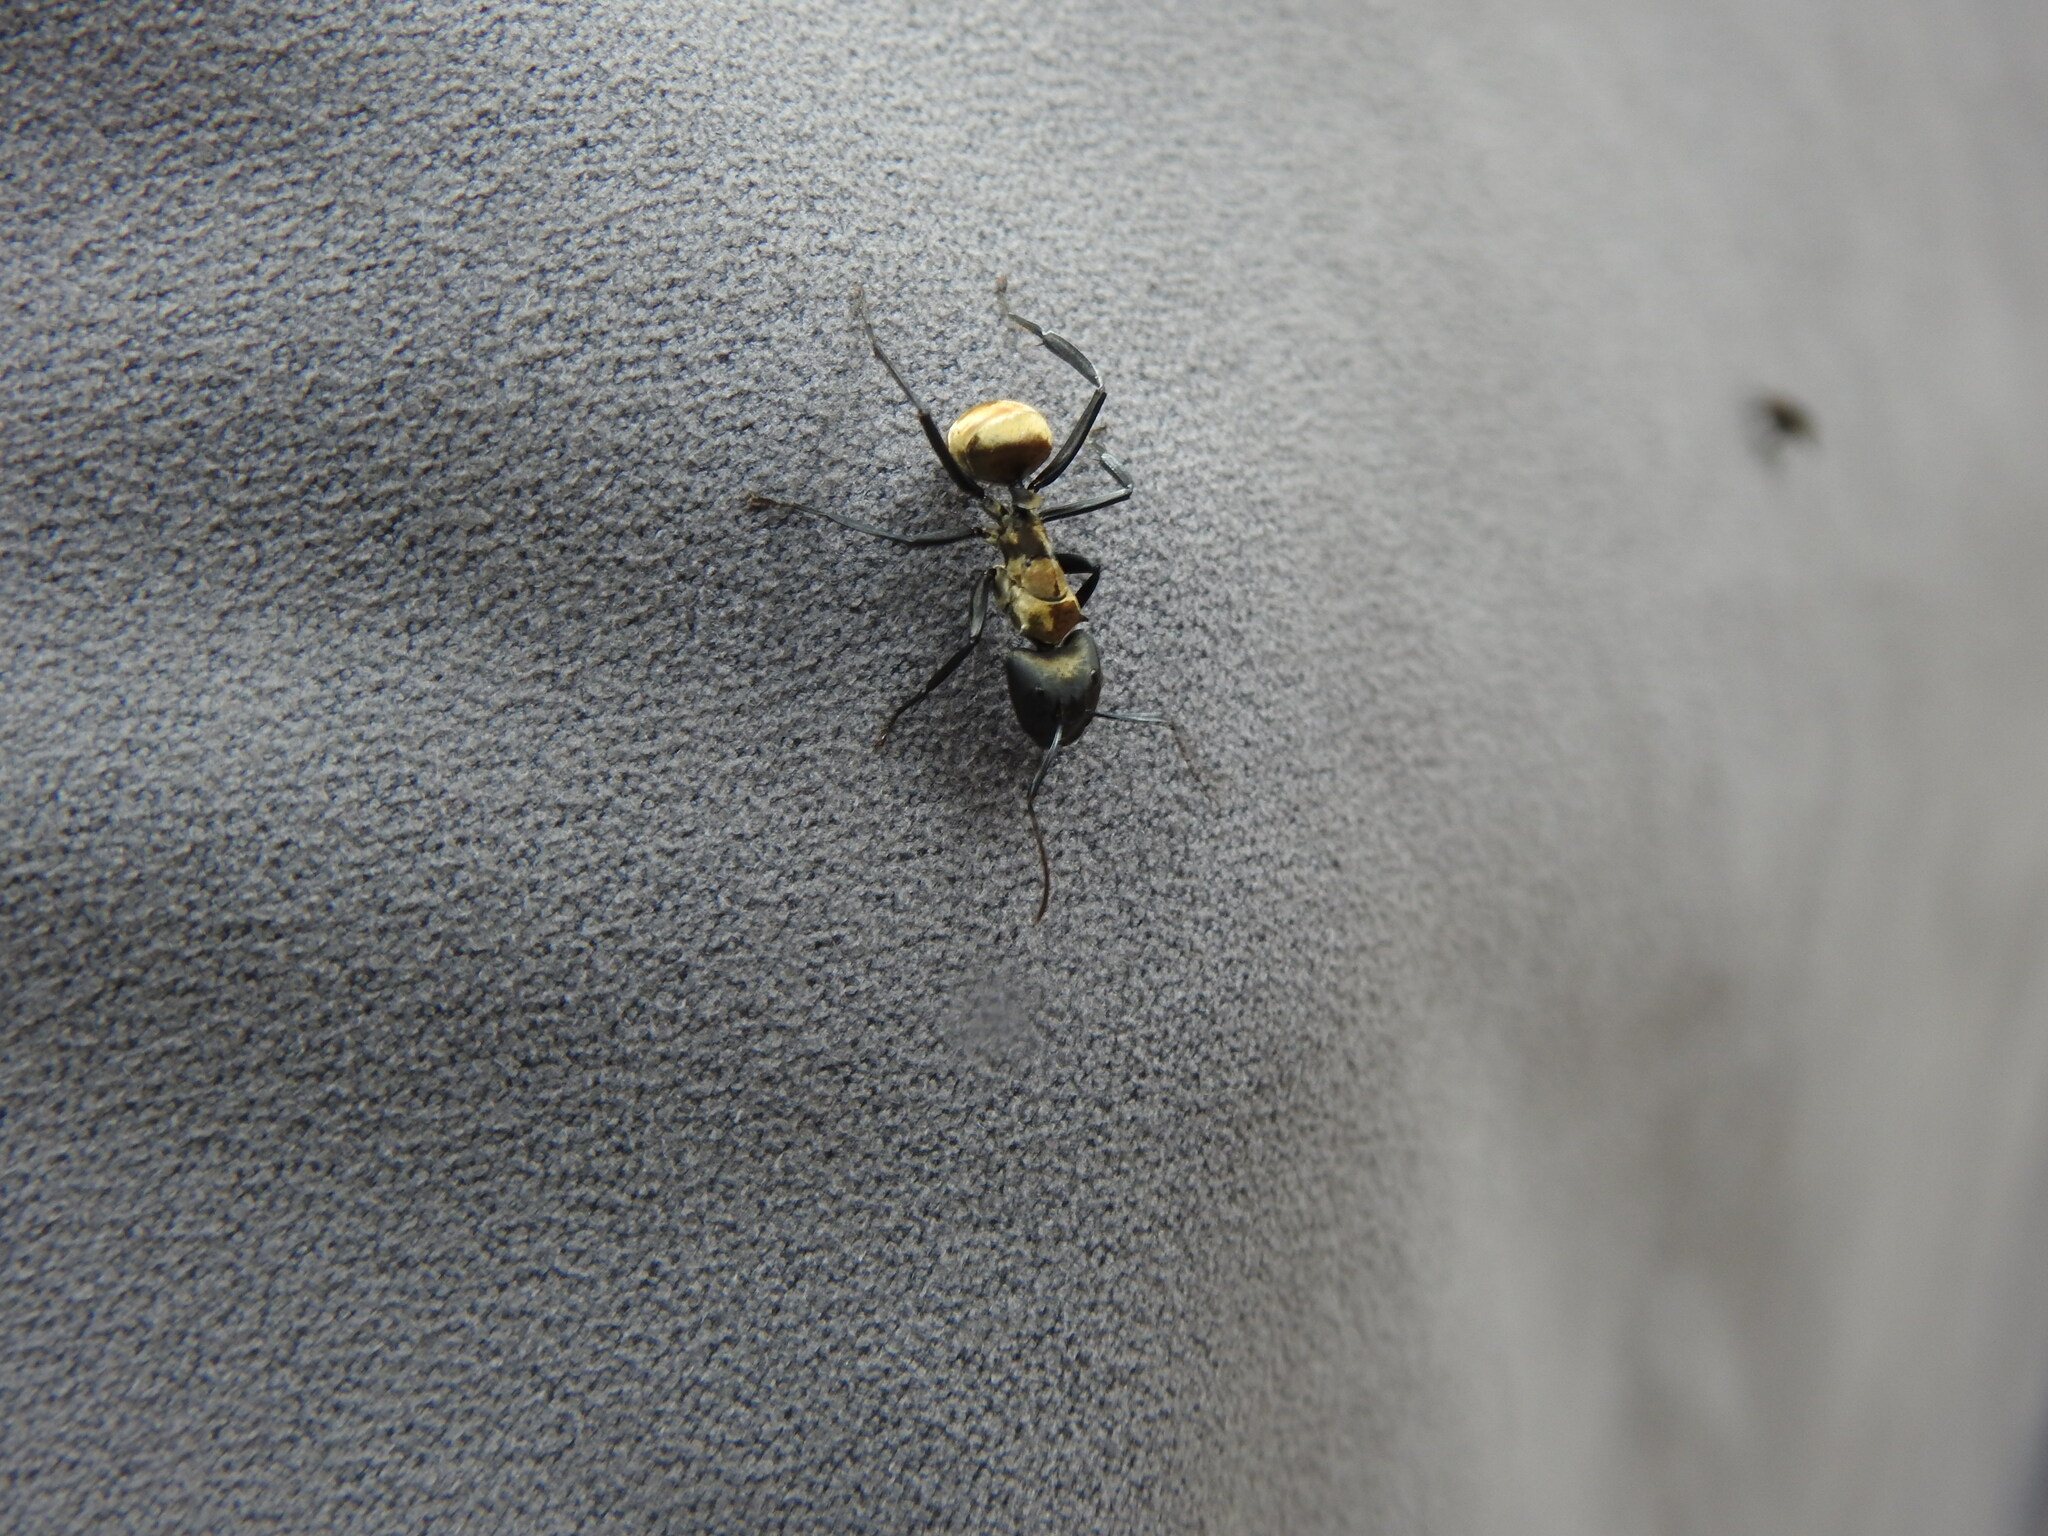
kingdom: Animalia
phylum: Arthropoda
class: Insecta
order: Hymenoptera
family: Formicidae
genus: Camponotus
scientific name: Camponotus sericeiventris
